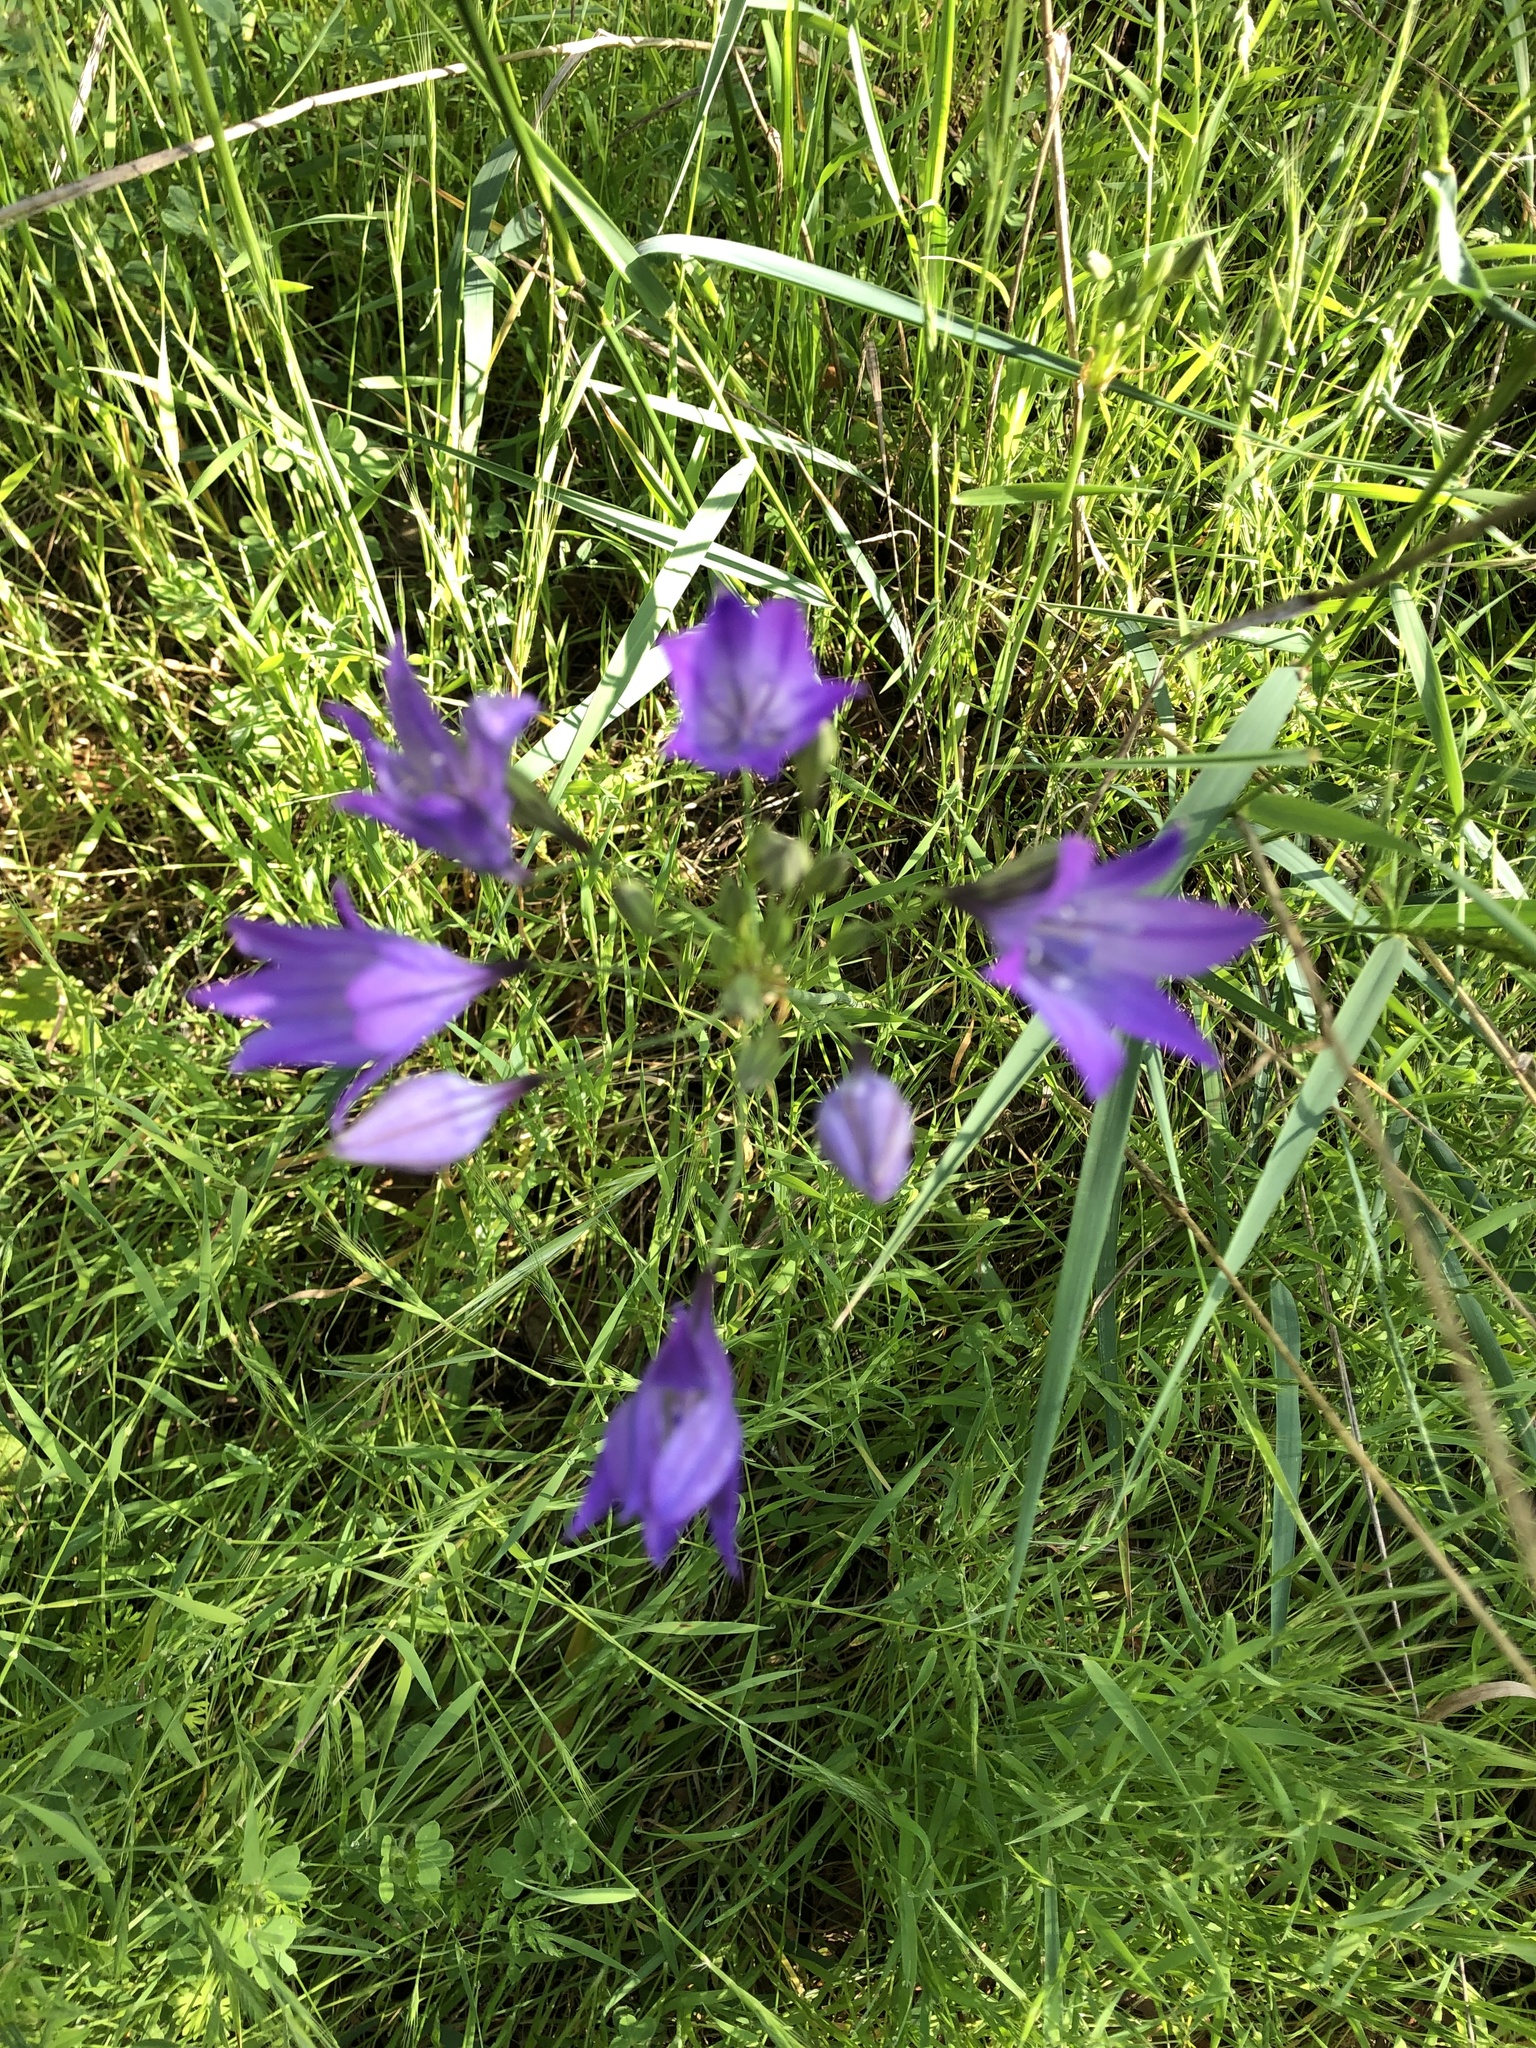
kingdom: Plantae
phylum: Tracheophyta
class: Liliopsida
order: Asparagales
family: Asparagaceae
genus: Triteleia
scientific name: Triteleia laxa
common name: Triplet-lily
